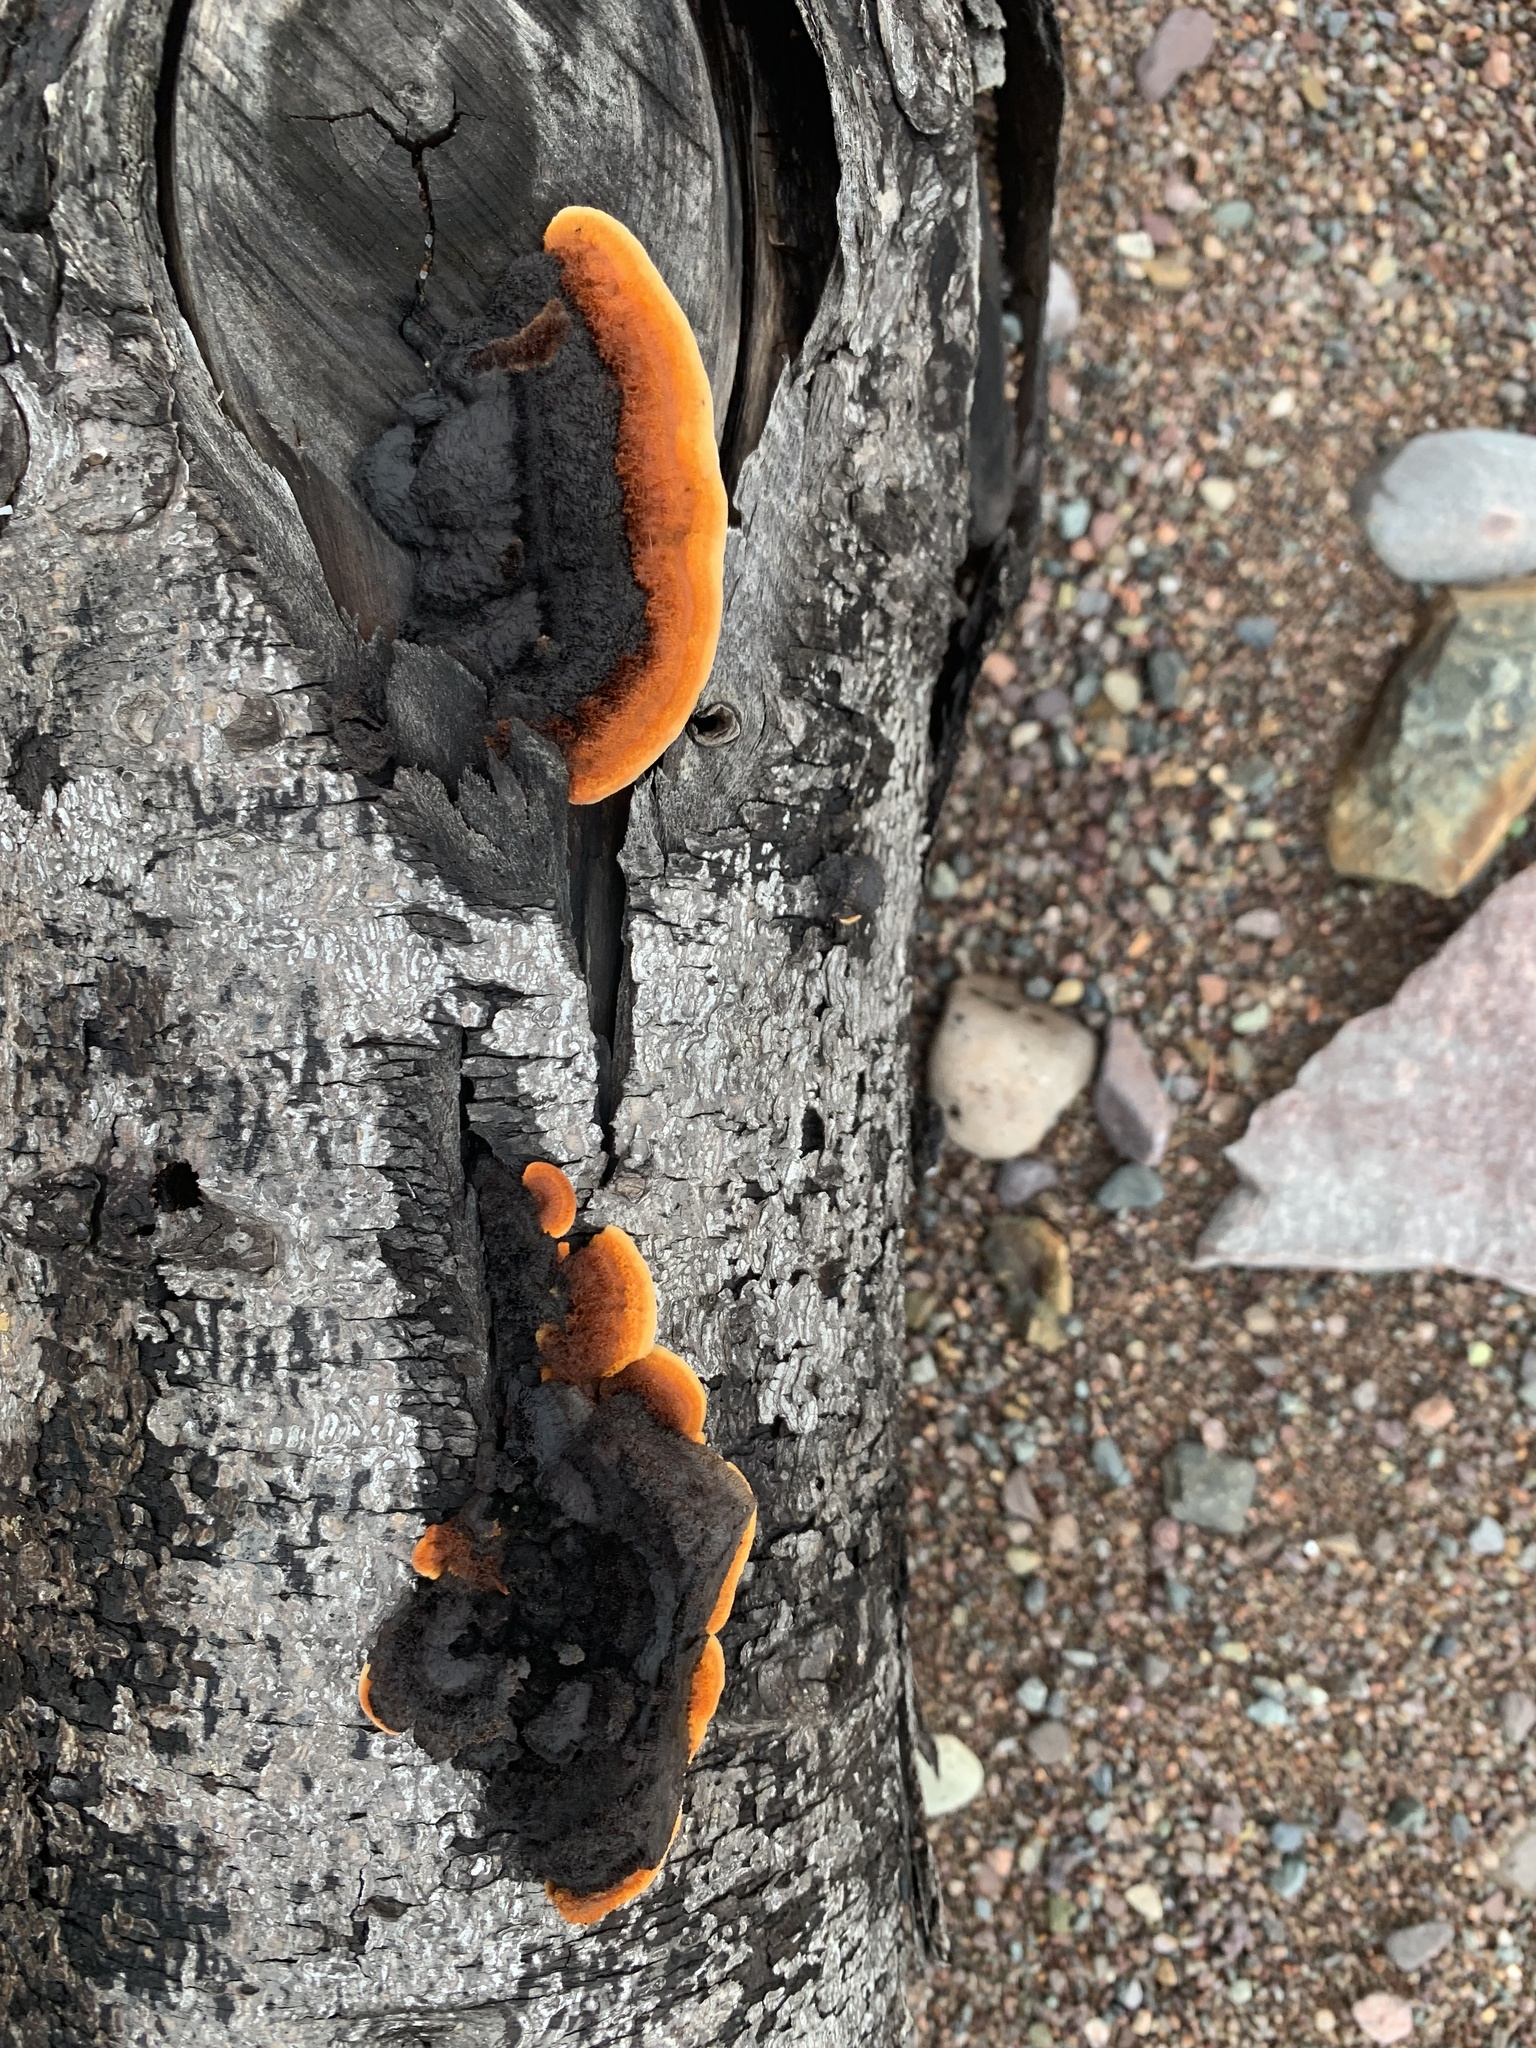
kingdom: Fungi
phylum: Basidiomycota
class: Agaricomycetes
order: Gloeophyllales
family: Gloeophyllaceae
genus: Gloeophyllum
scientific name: Gloeophyllum sepiarium
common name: Conifer mazegill
